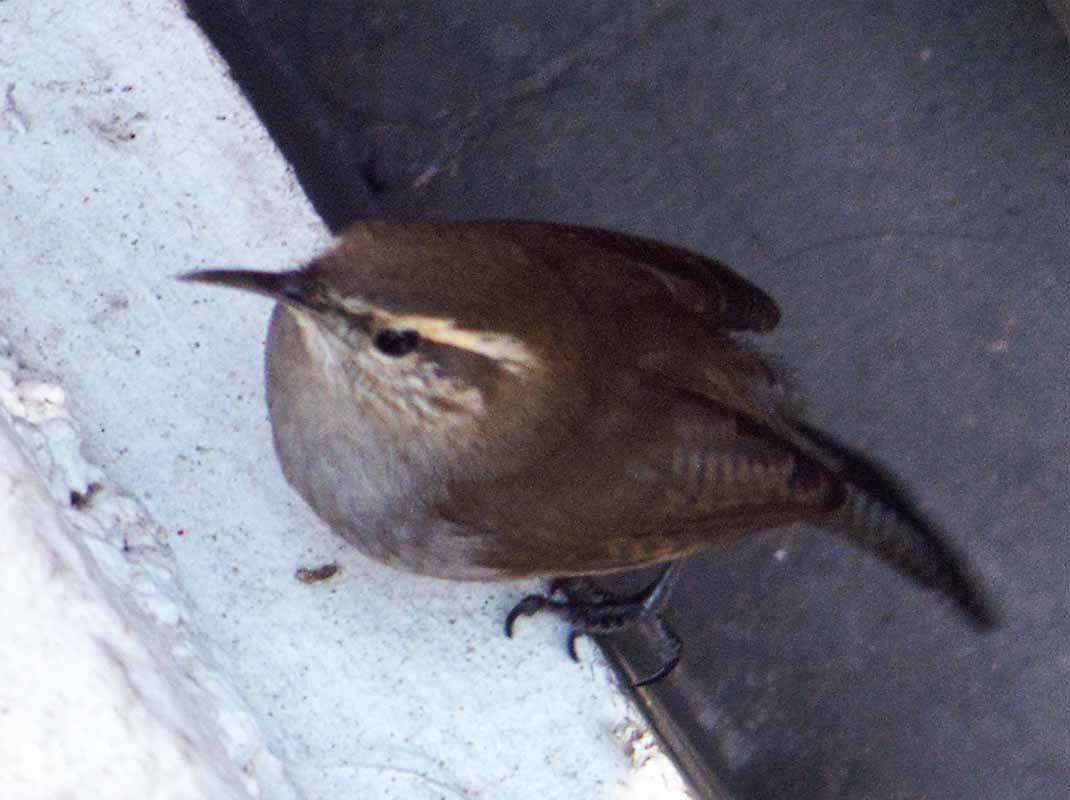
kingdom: Animalia
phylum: Chordata
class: Aves
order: Passeriformes
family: Troglodytidae
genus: Thryomanes
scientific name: Thryomanes bewickii
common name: Bewick's wren
